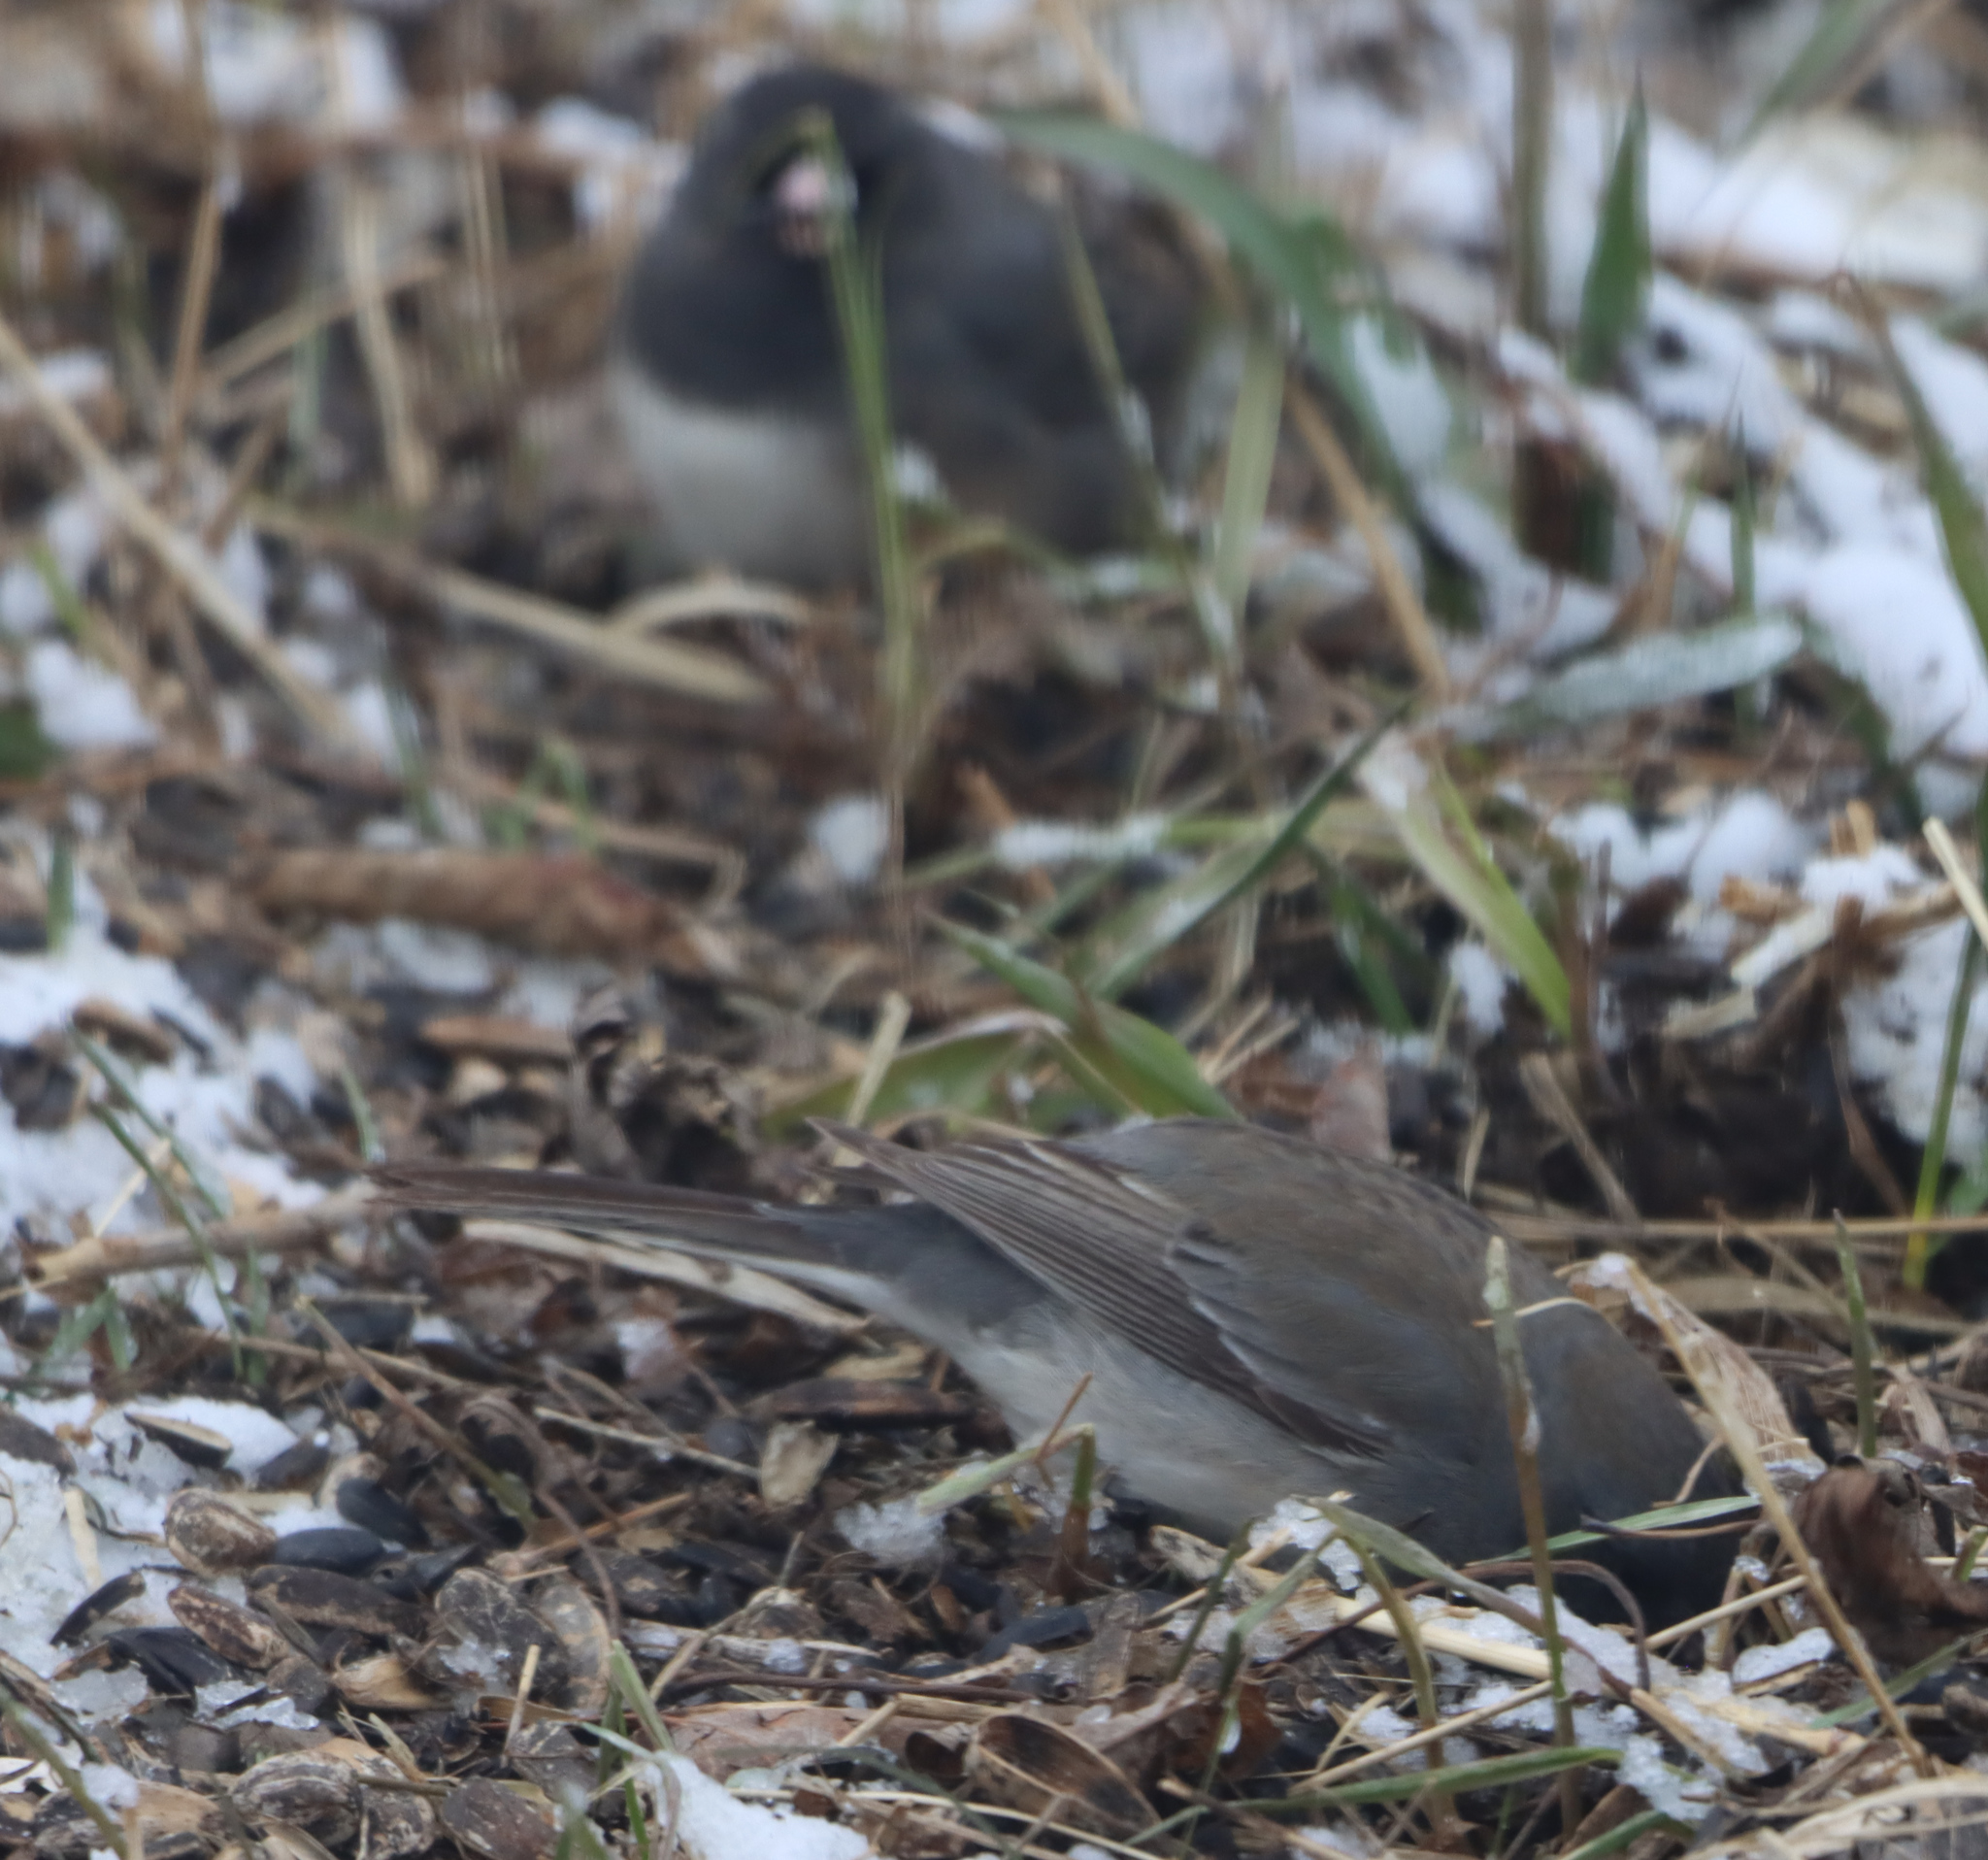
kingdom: Animalia
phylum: Chordata
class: Aves
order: Passeriformes
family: Passerellidae
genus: Junco
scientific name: Junco hyemalis
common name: Dark-eyed junco
